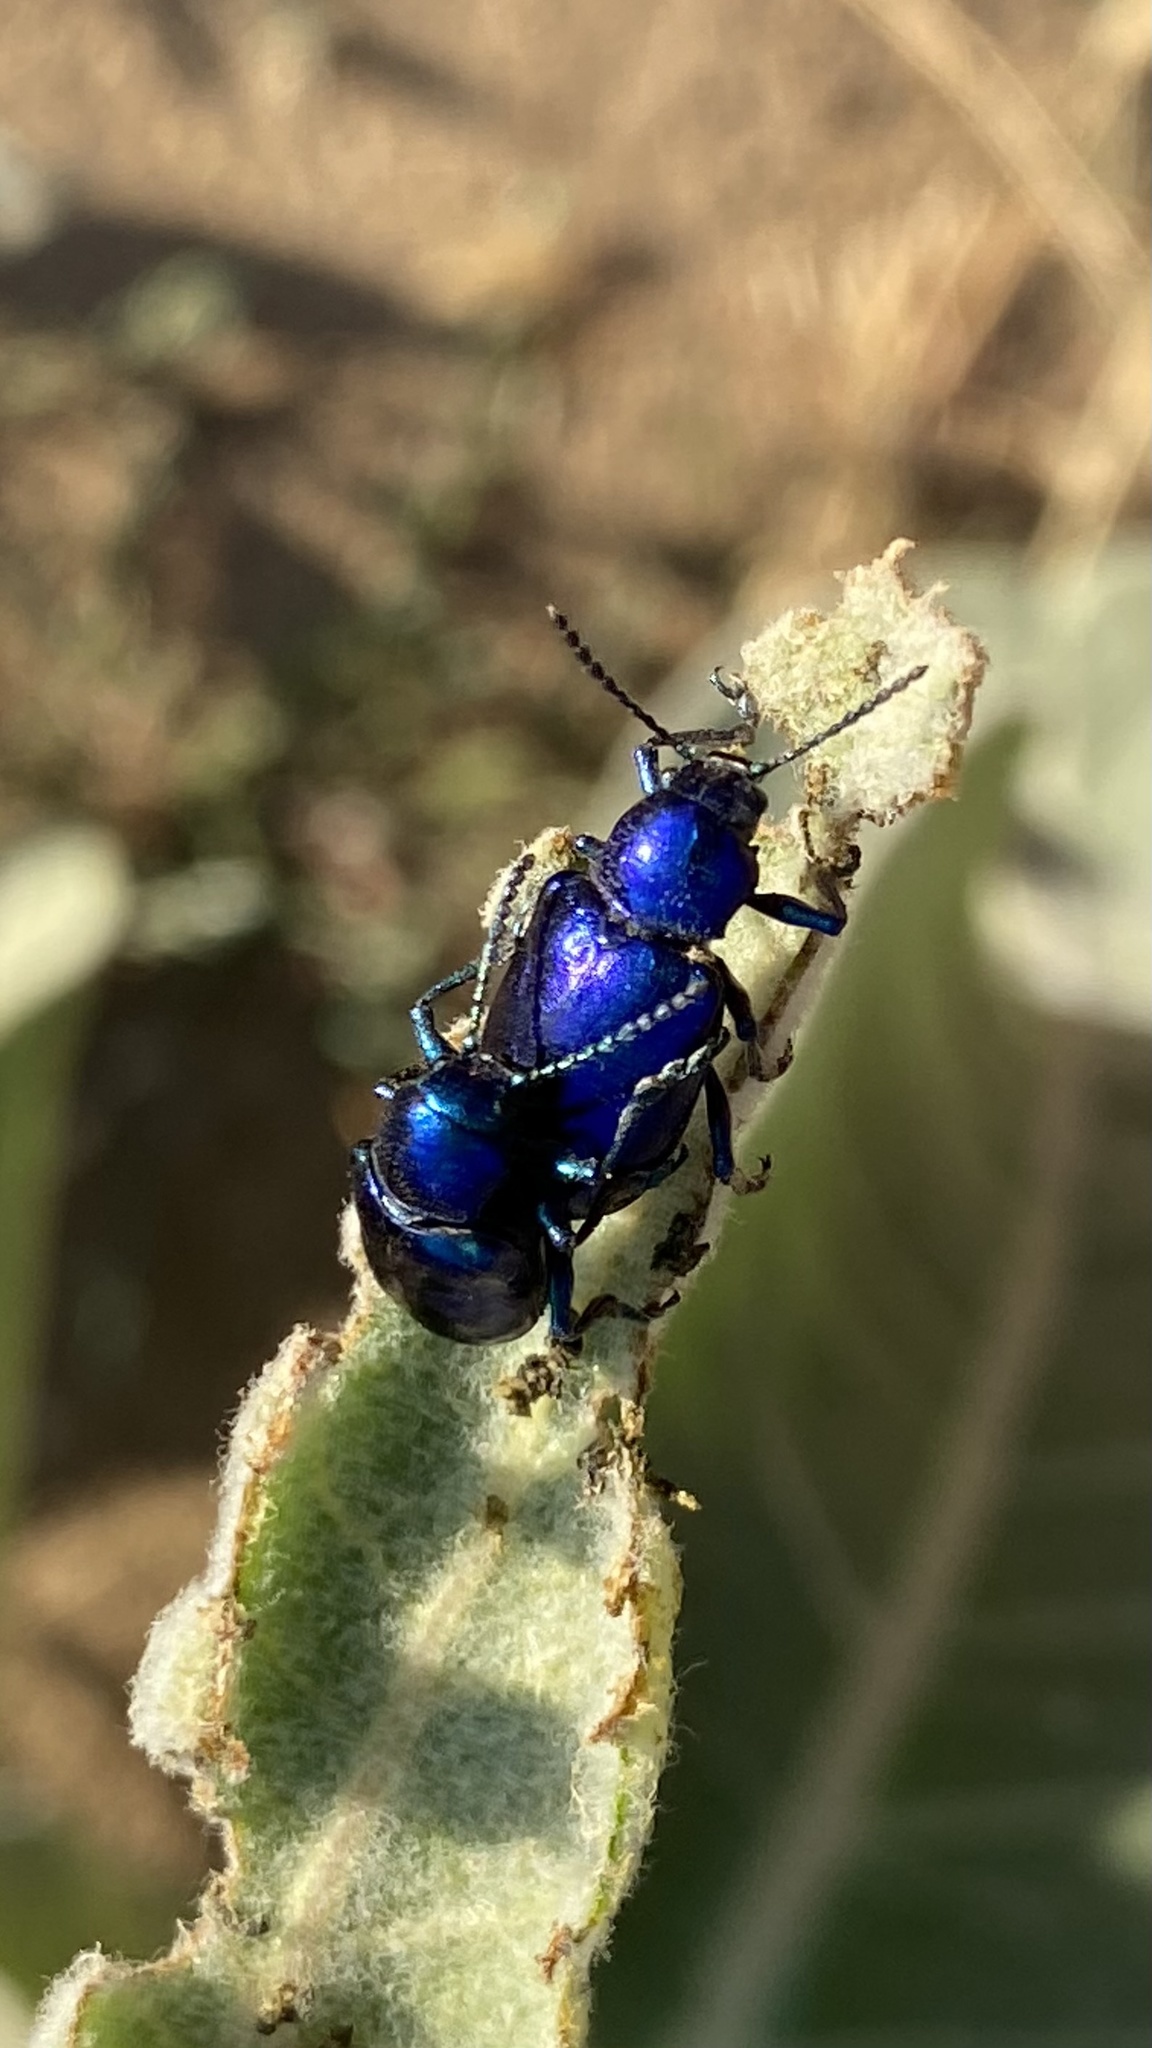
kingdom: Animalia
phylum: Arthropoda
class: Insecta
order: Coleoptera
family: Chrysomelidae
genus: Chrysochus
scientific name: Chrysochus cobaltinus
